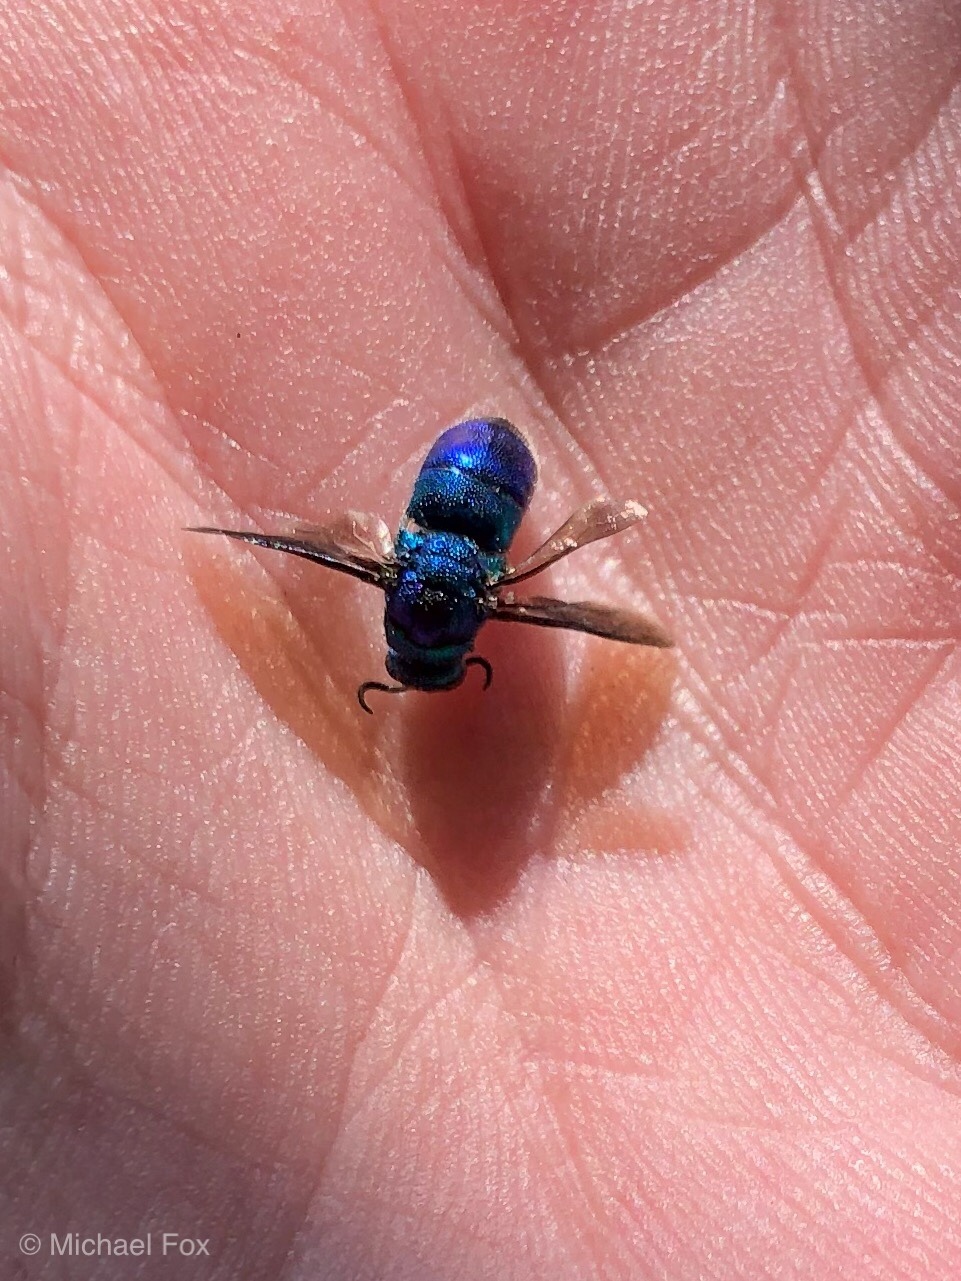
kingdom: Animalia
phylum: Arthropoda
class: Insecta
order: Hymenoptera
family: Chrysididae
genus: Chrysis
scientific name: Chrysis angolensis
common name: Cuckoo wasp
